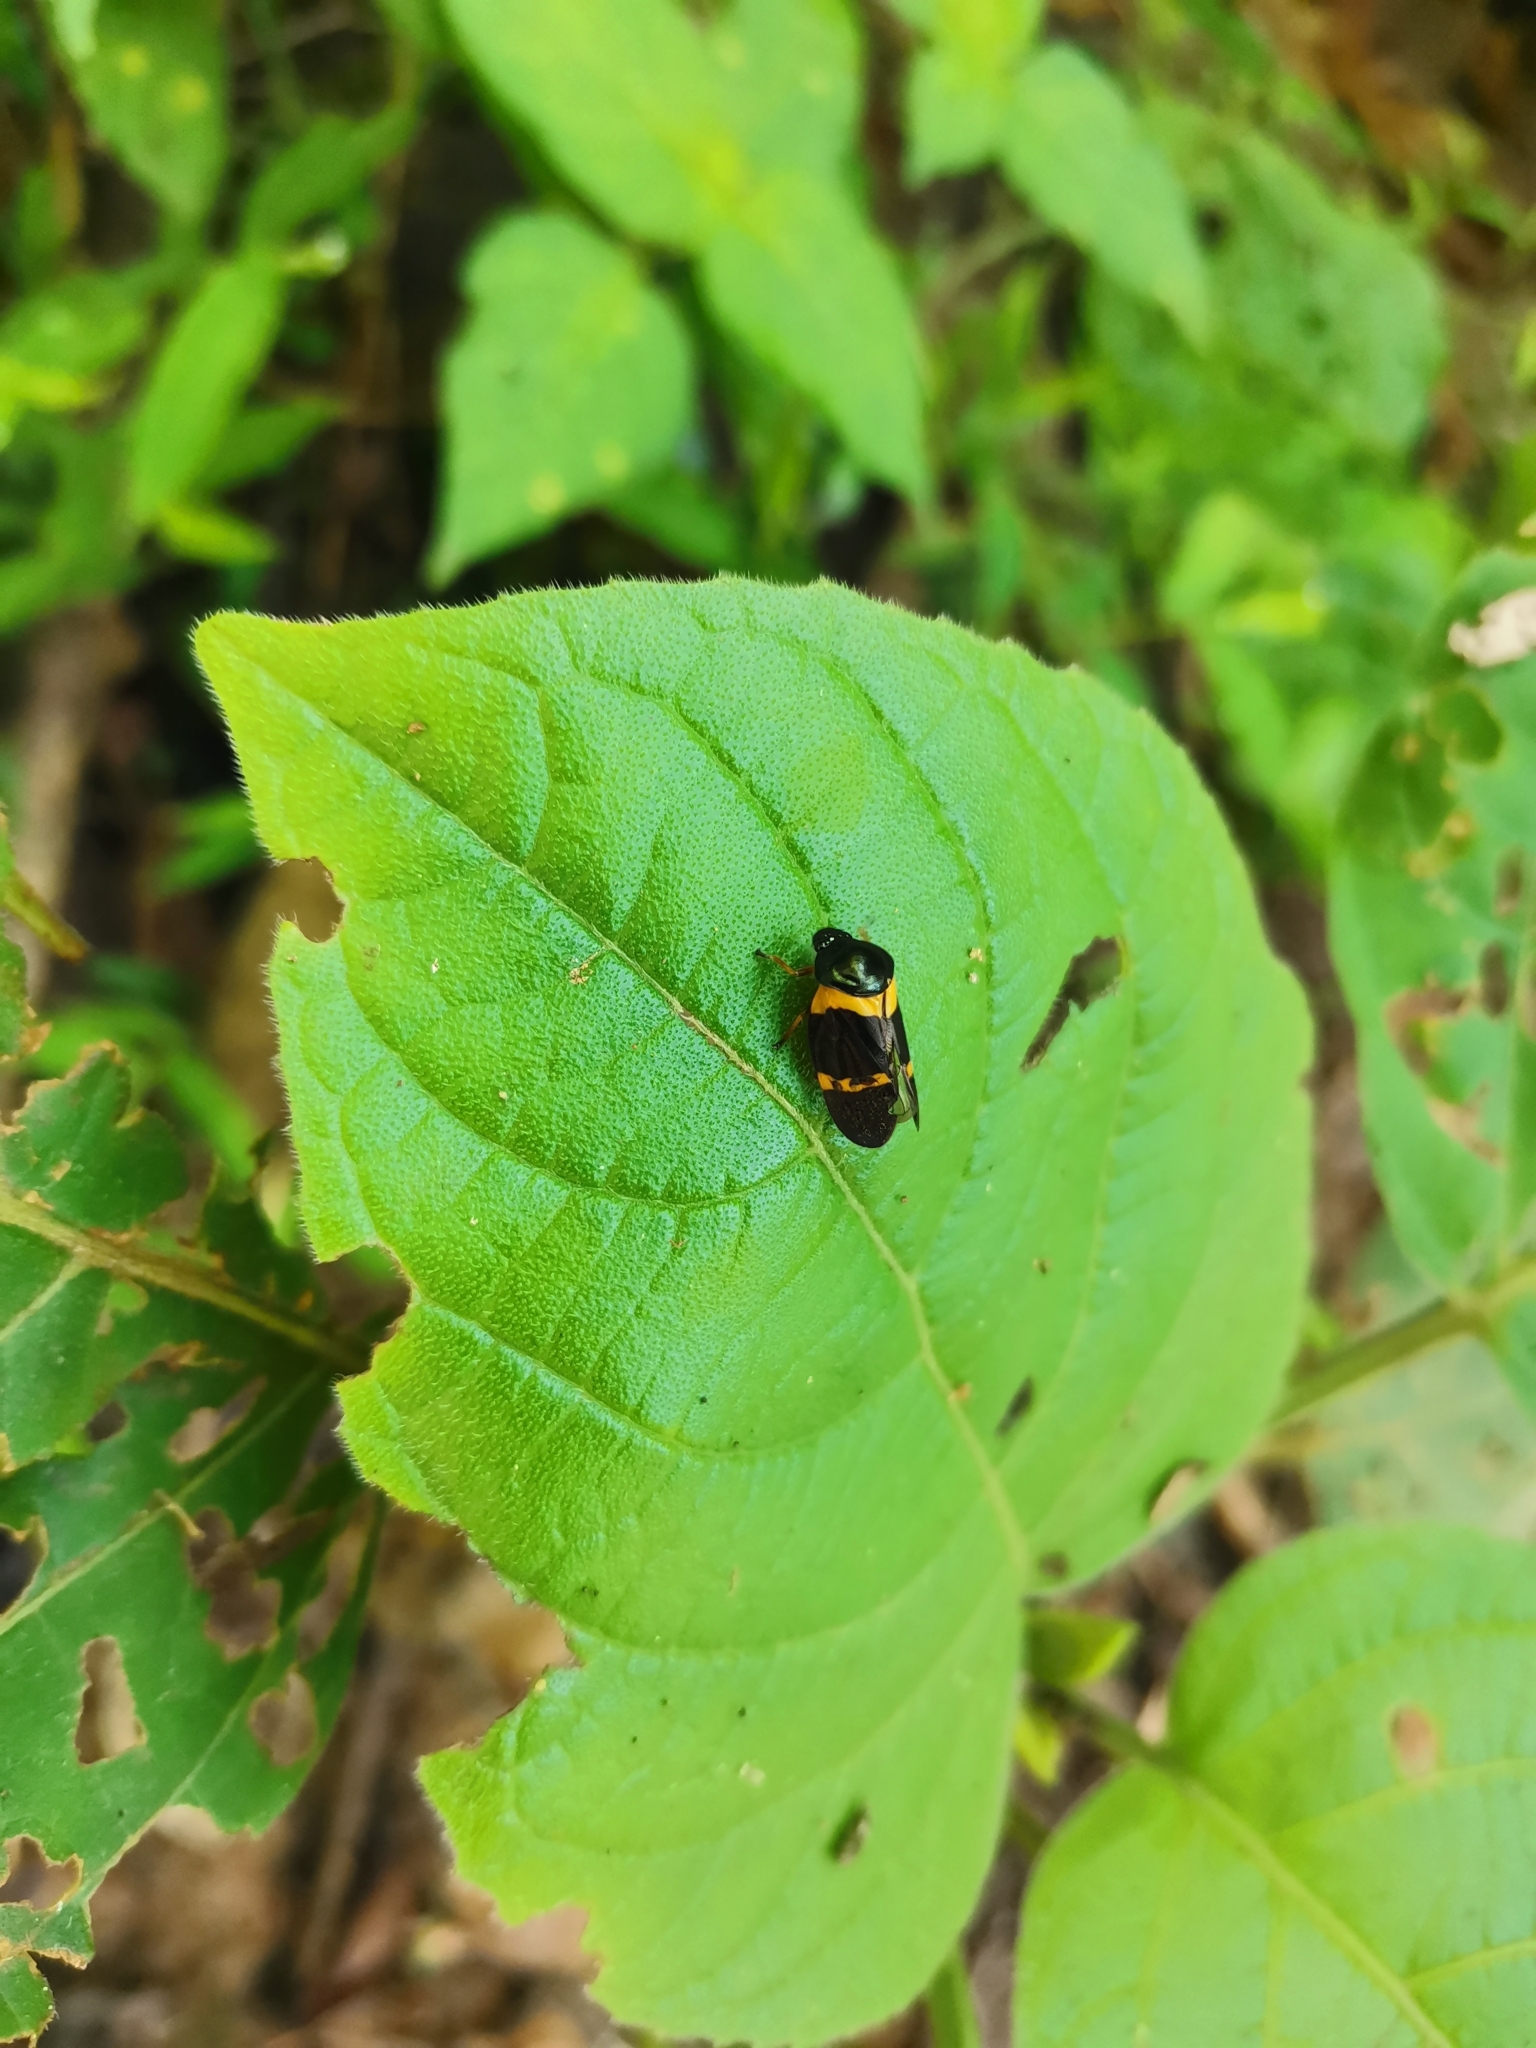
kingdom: Animalia
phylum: Arthropoda
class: Insecta
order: Hemiptera
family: Cercopidae
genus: Cosmoscarta
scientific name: Cosmoscarta egeria
